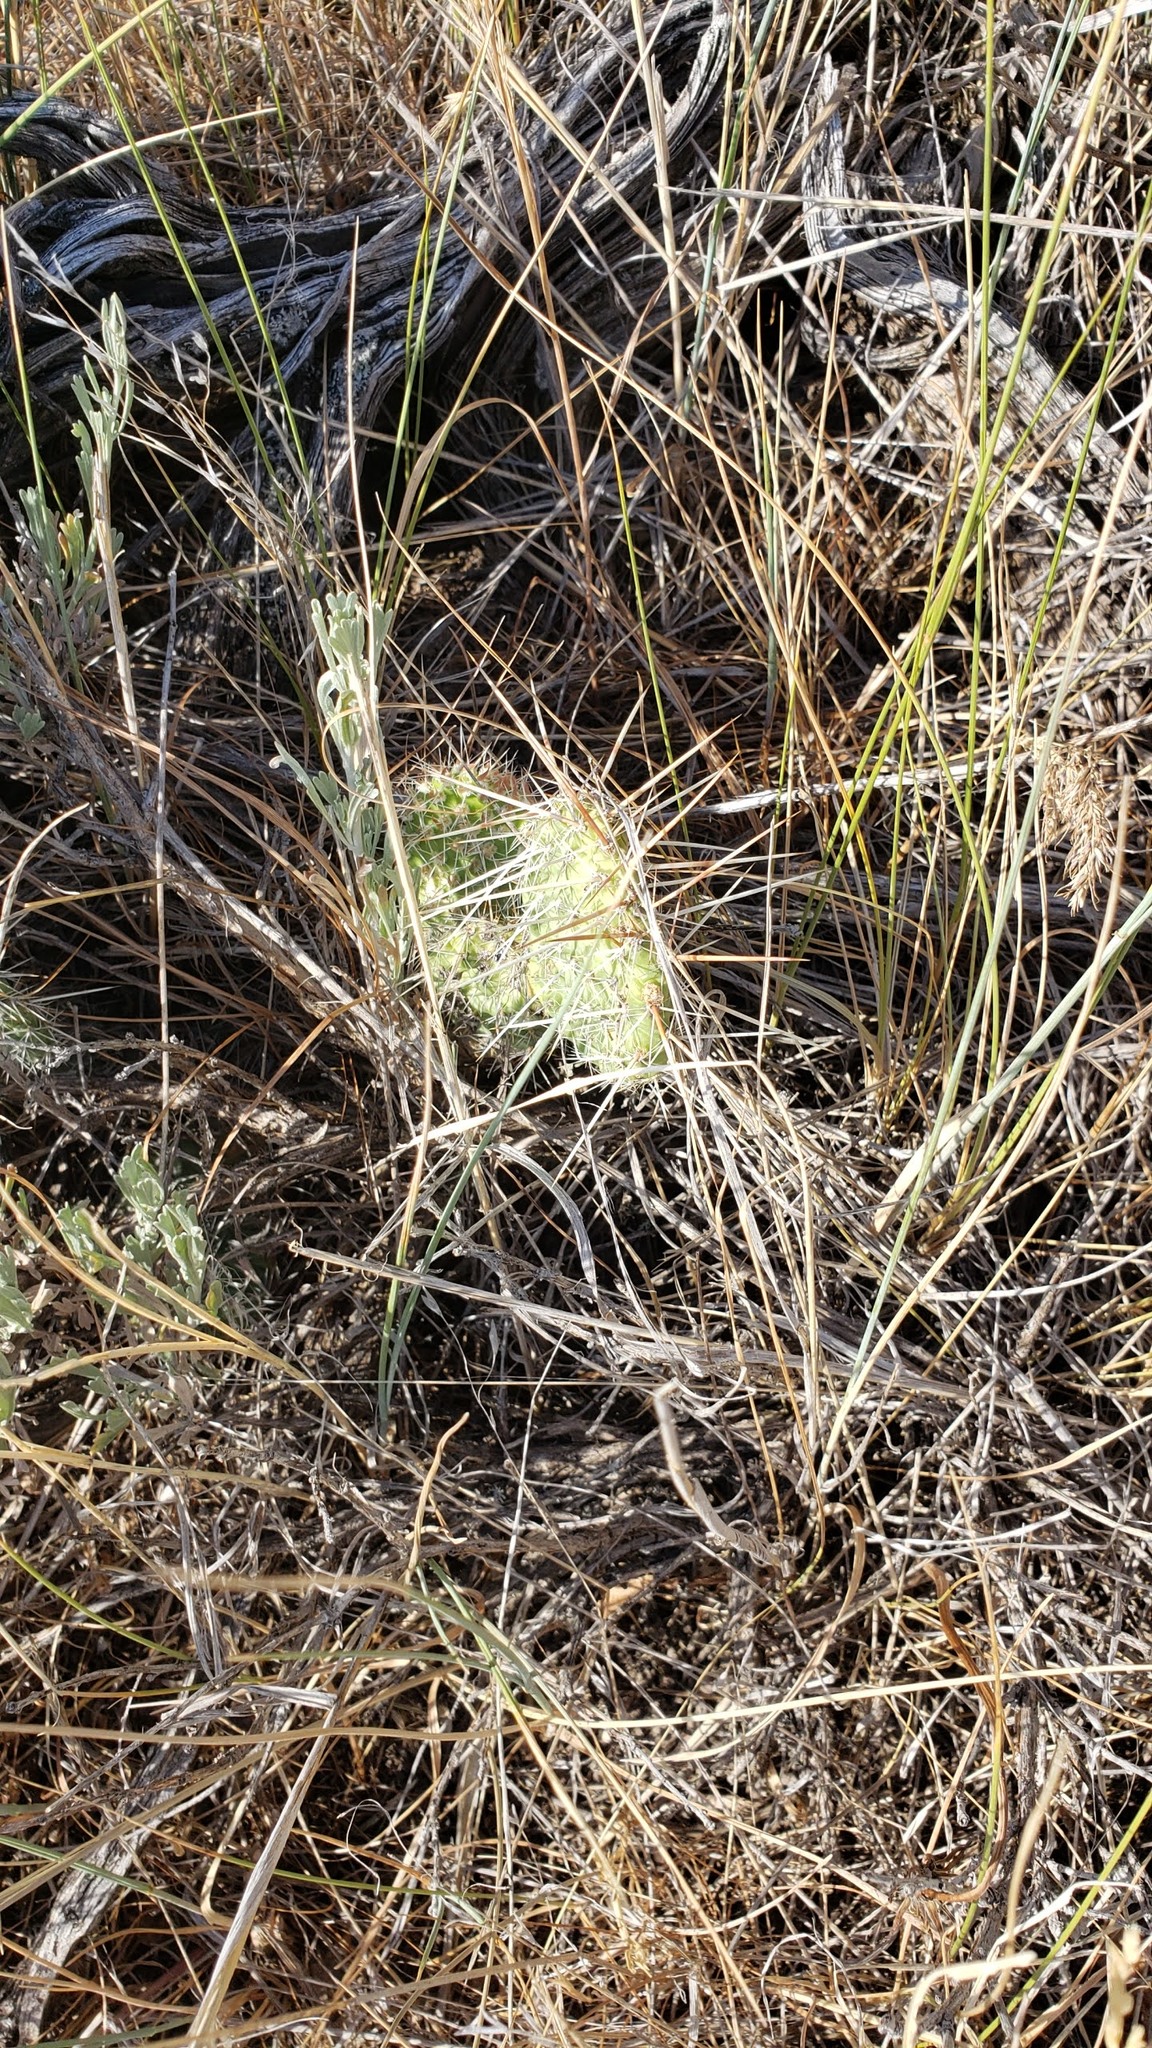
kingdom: Plantae
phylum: Tracheophyta
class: Magnoliopsida
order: Caryophyllales
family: Cactaceae
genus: Opuntia
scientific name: Opuntia polyacantha
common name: Plains prickly-pear
